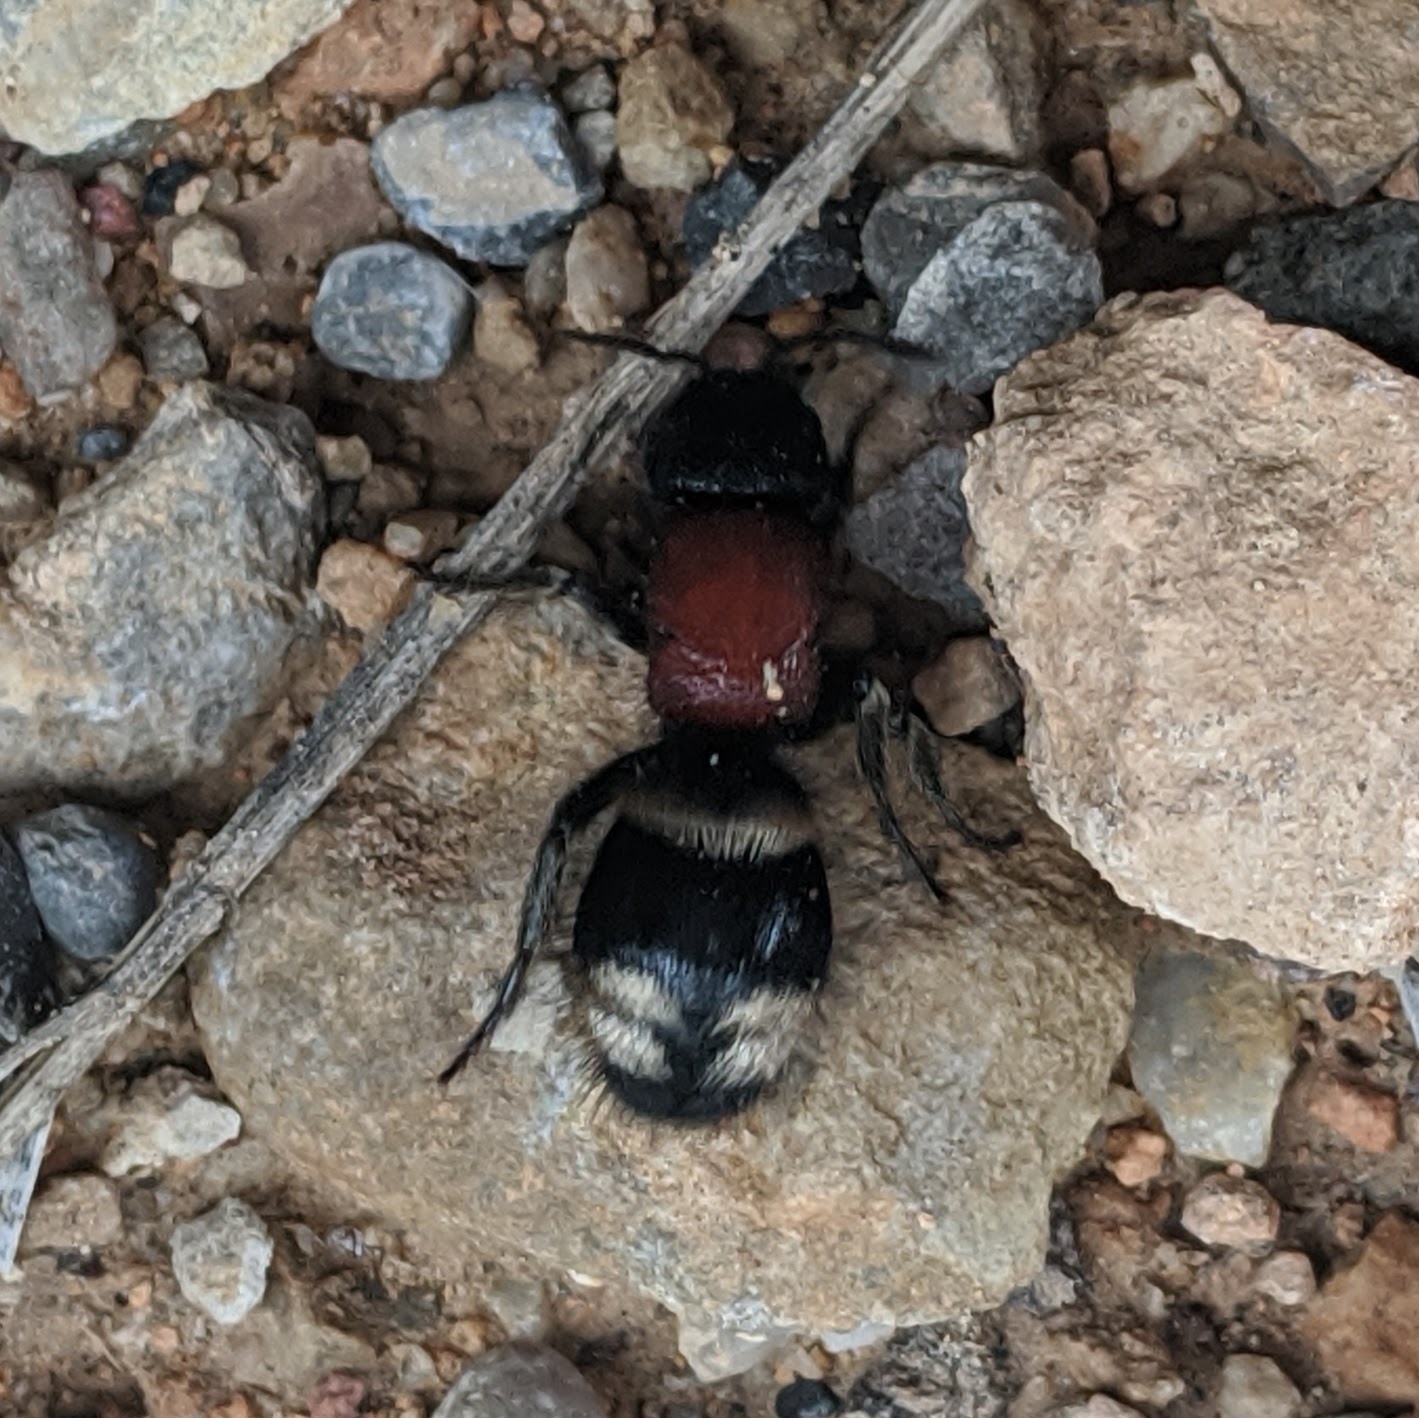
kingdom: Animalia
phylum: Arthropoda
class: Insecta
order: Hymenoptera
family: Mutillidae
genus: Mutilla
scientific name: Mutilla europaea
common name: Large velvet ant
